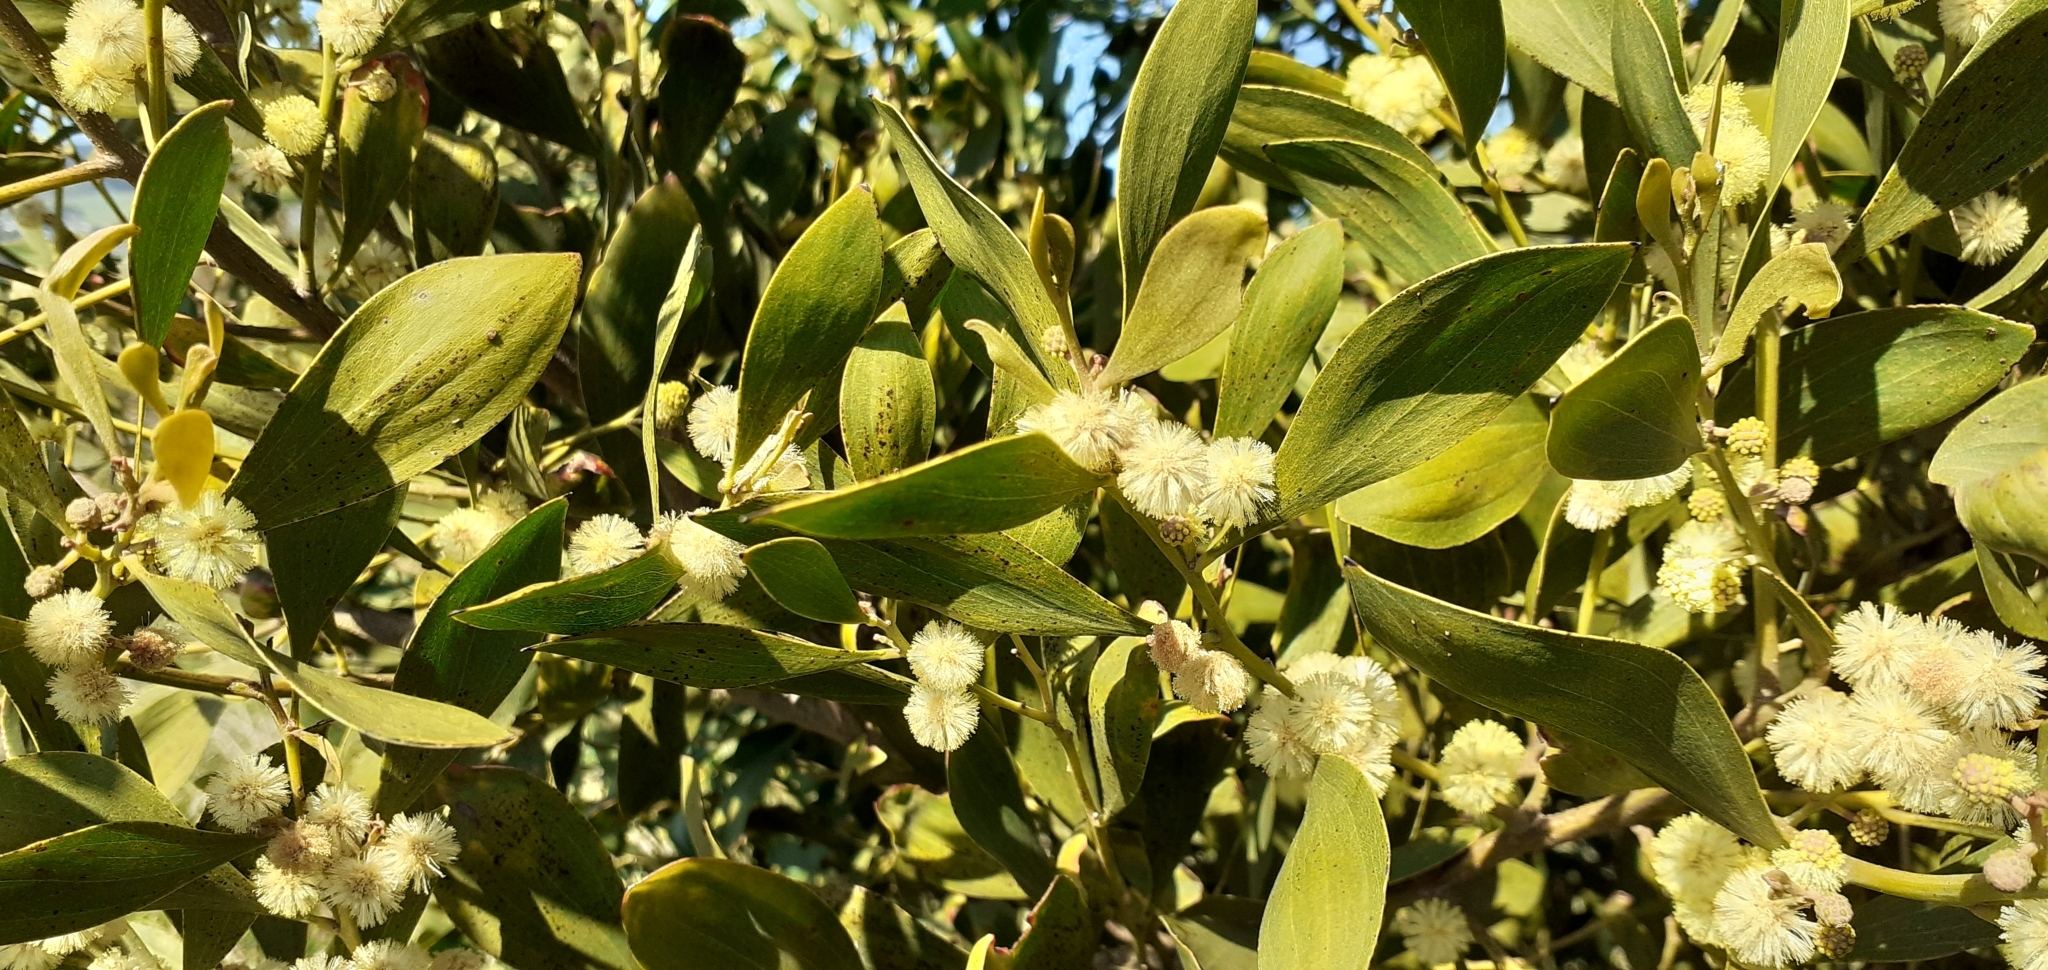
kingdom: Animalia
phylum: Arthropoda
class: Insecta
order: Coleoptera
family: Chrysomelidae
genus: Dicranosterna
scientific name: Dicranosterna
